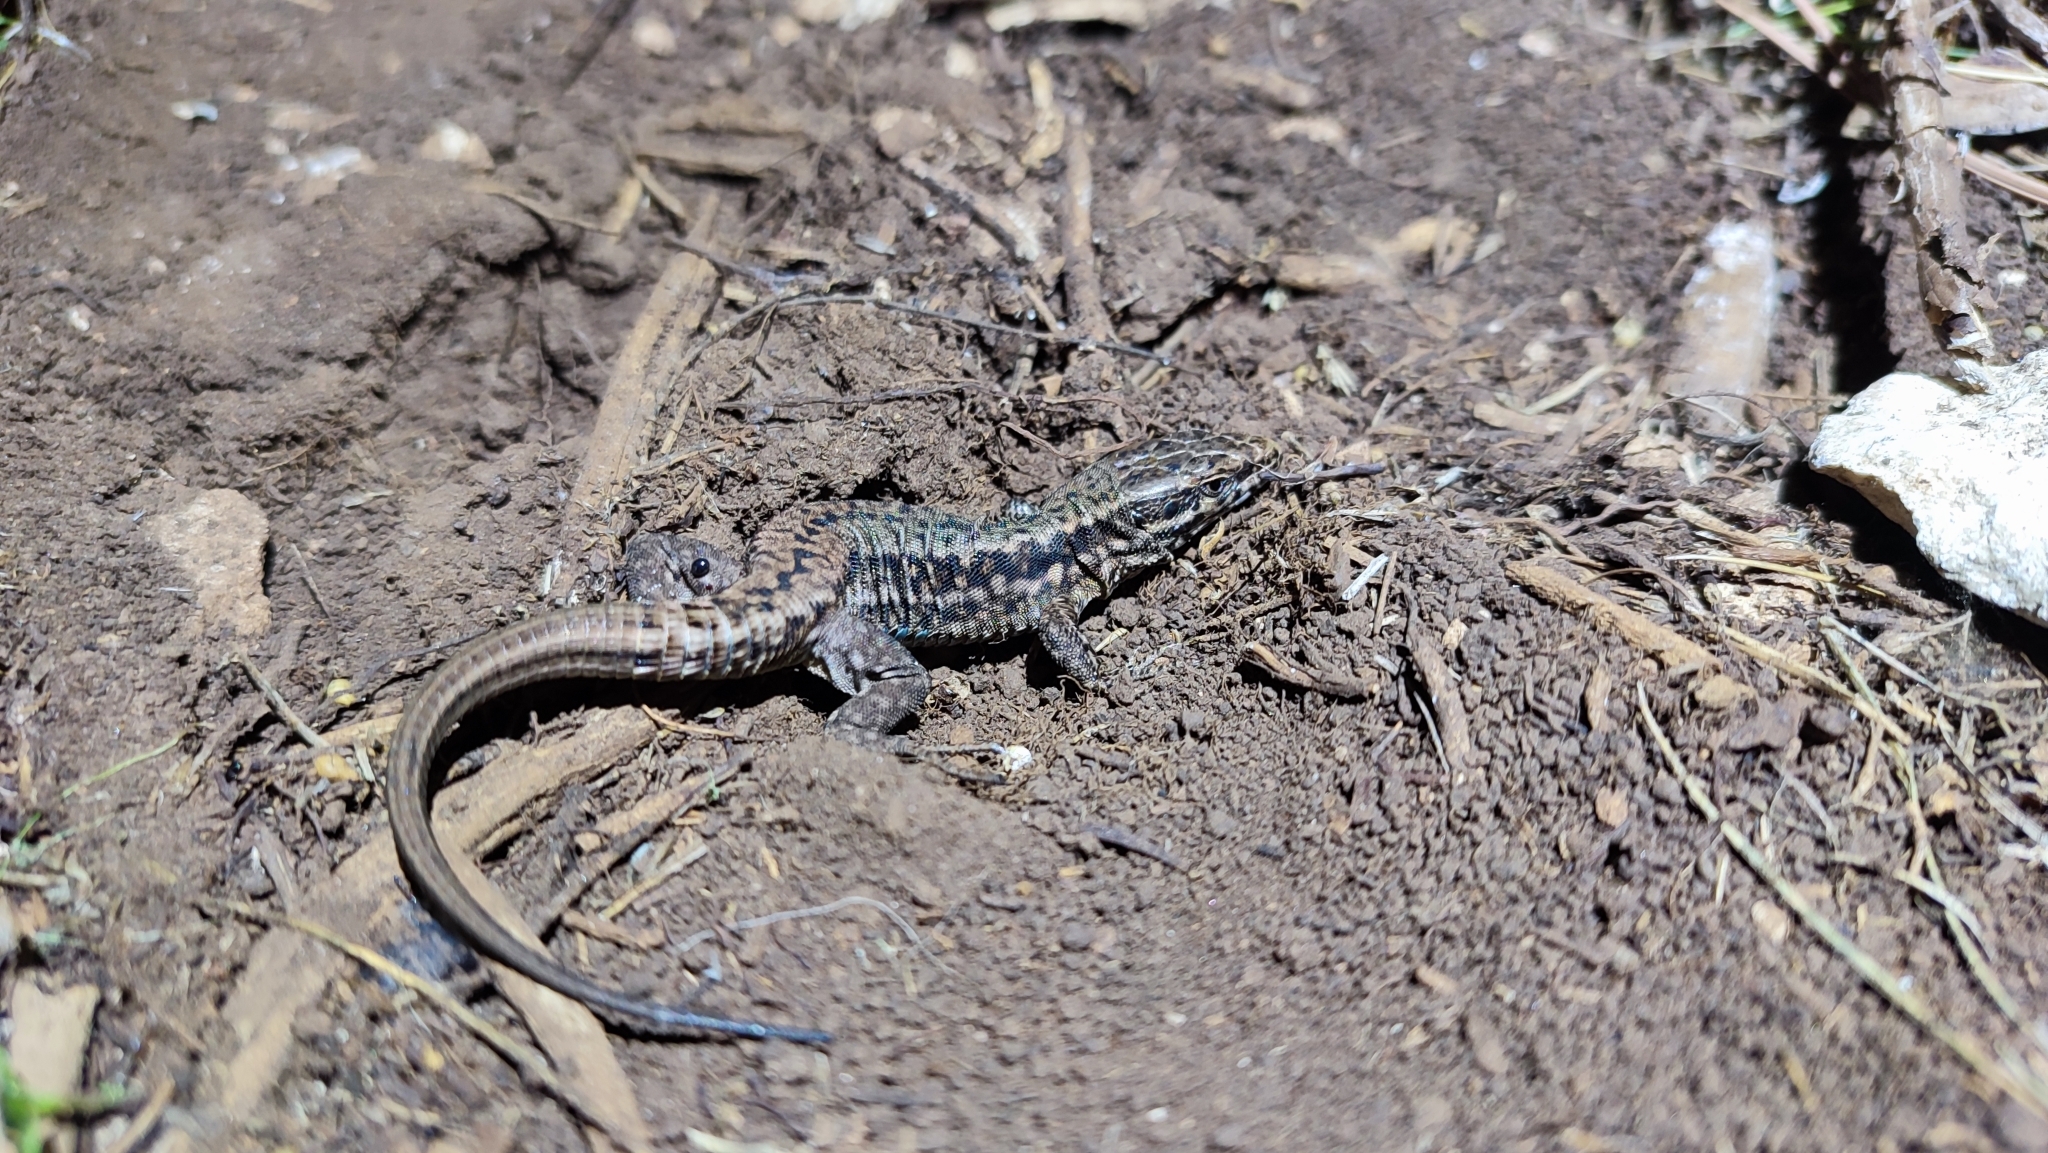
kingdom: Animalia
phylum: Chordata
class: Squamata
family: Lacertidae
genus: Podarcis
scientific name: Podarcis muralis
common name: Common wall lizard
